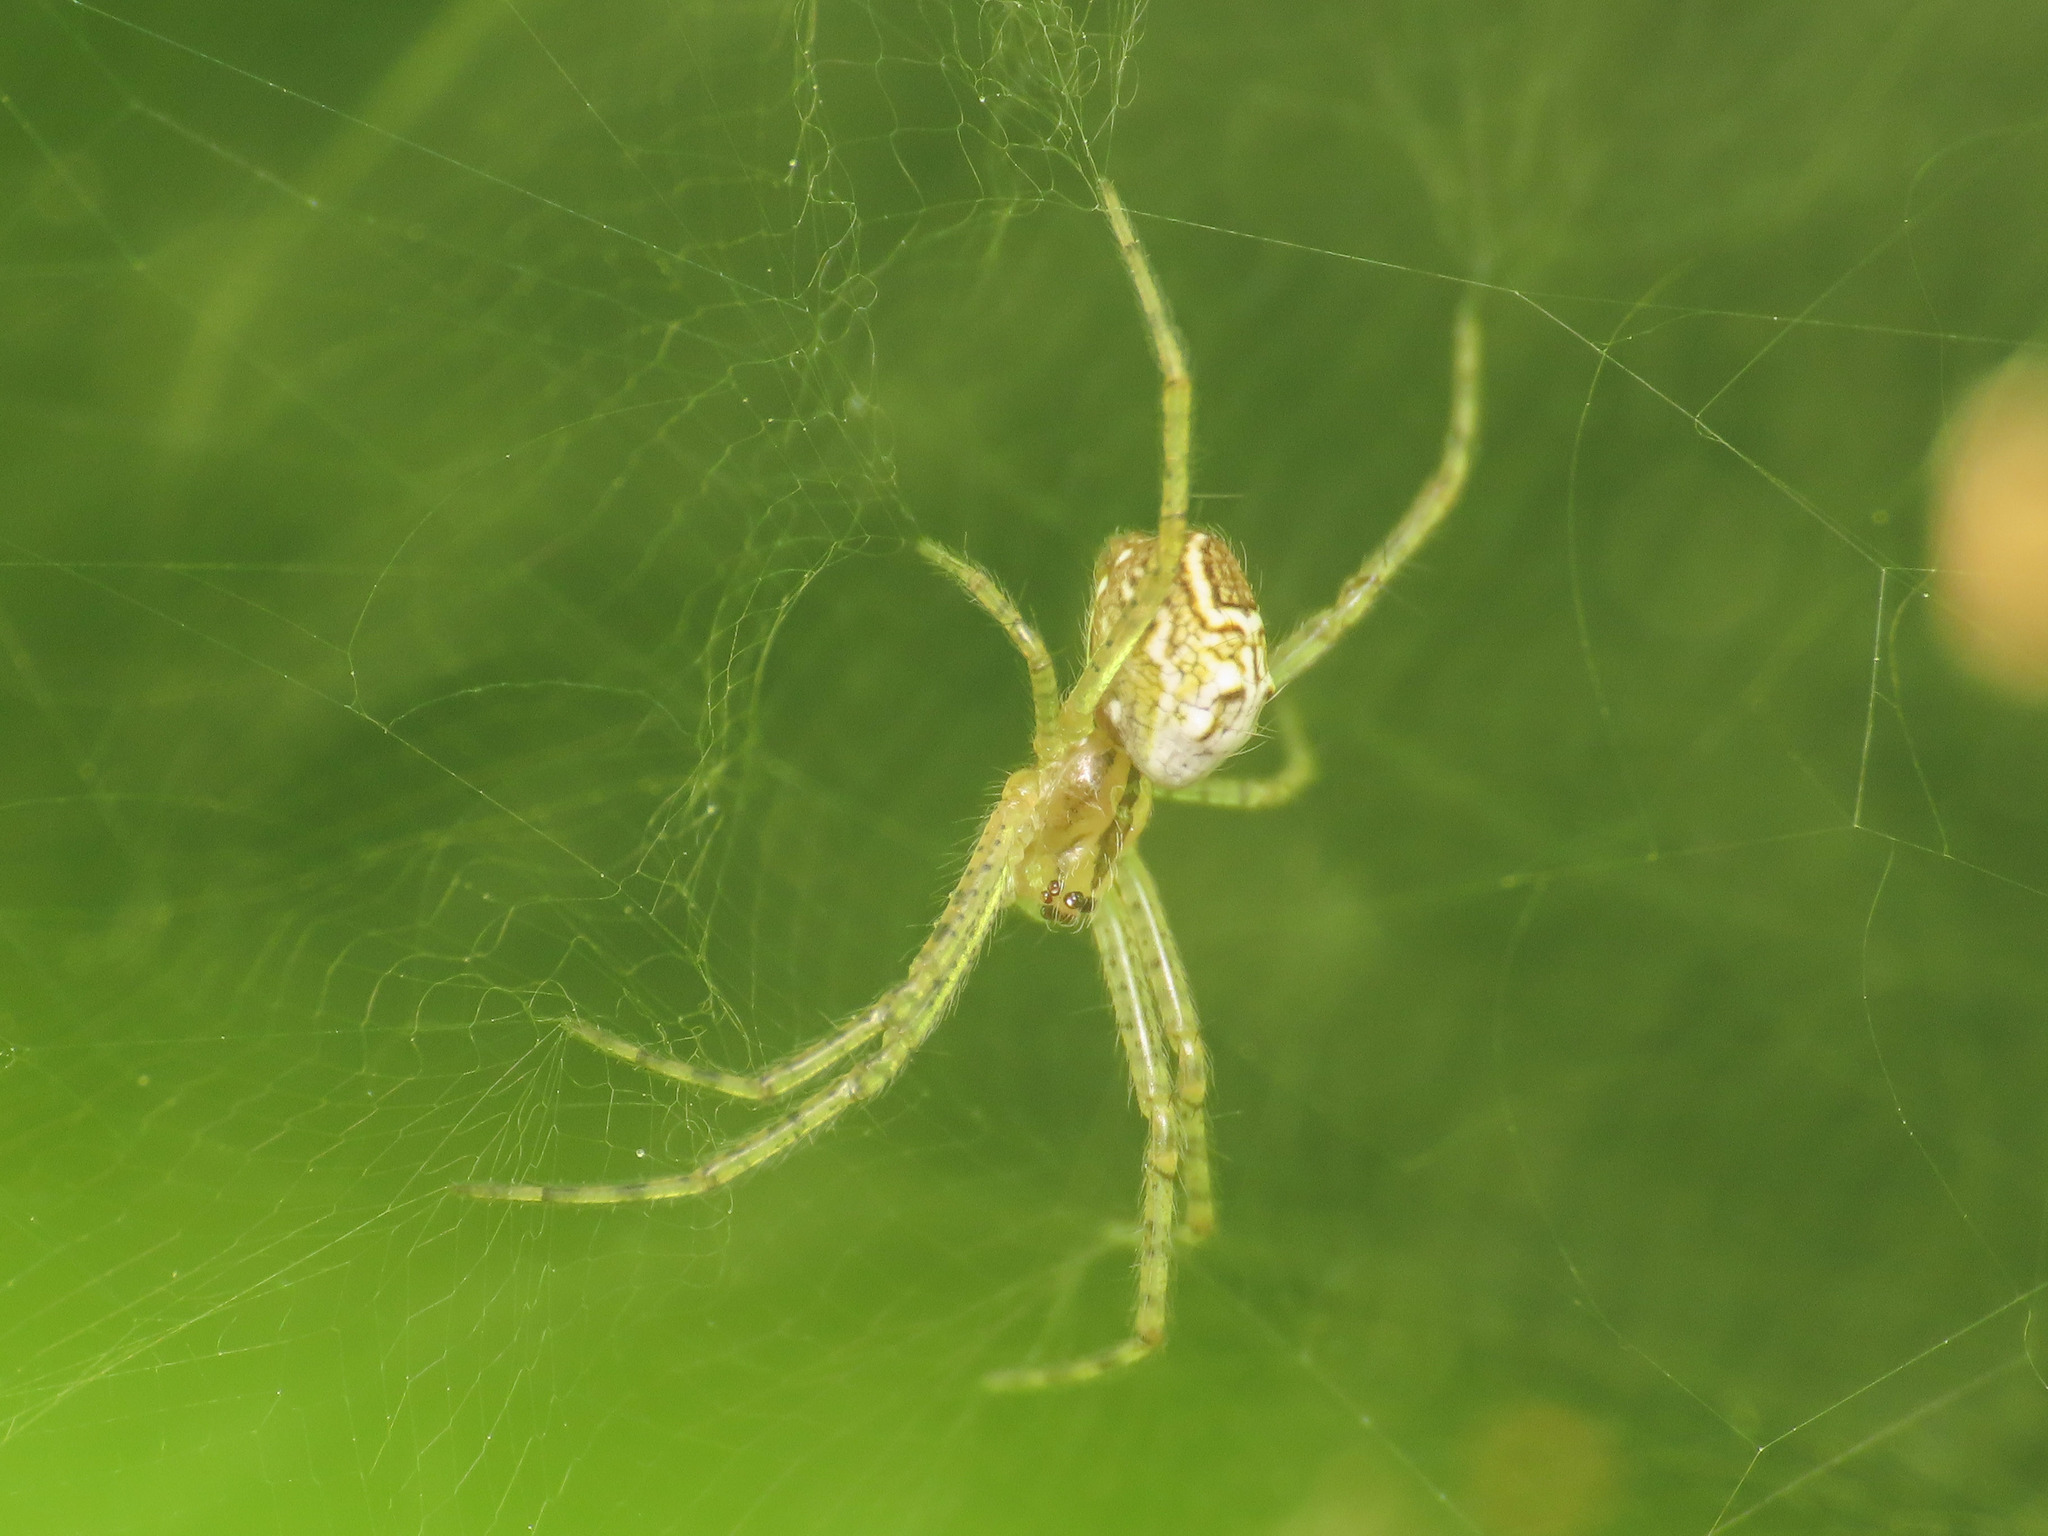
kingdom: Animalia
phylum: Arthropoda
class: Arachnida
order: Araneae
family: Araneidae
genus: Cyrtophora
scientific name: Cyrtophora cicatrosa
